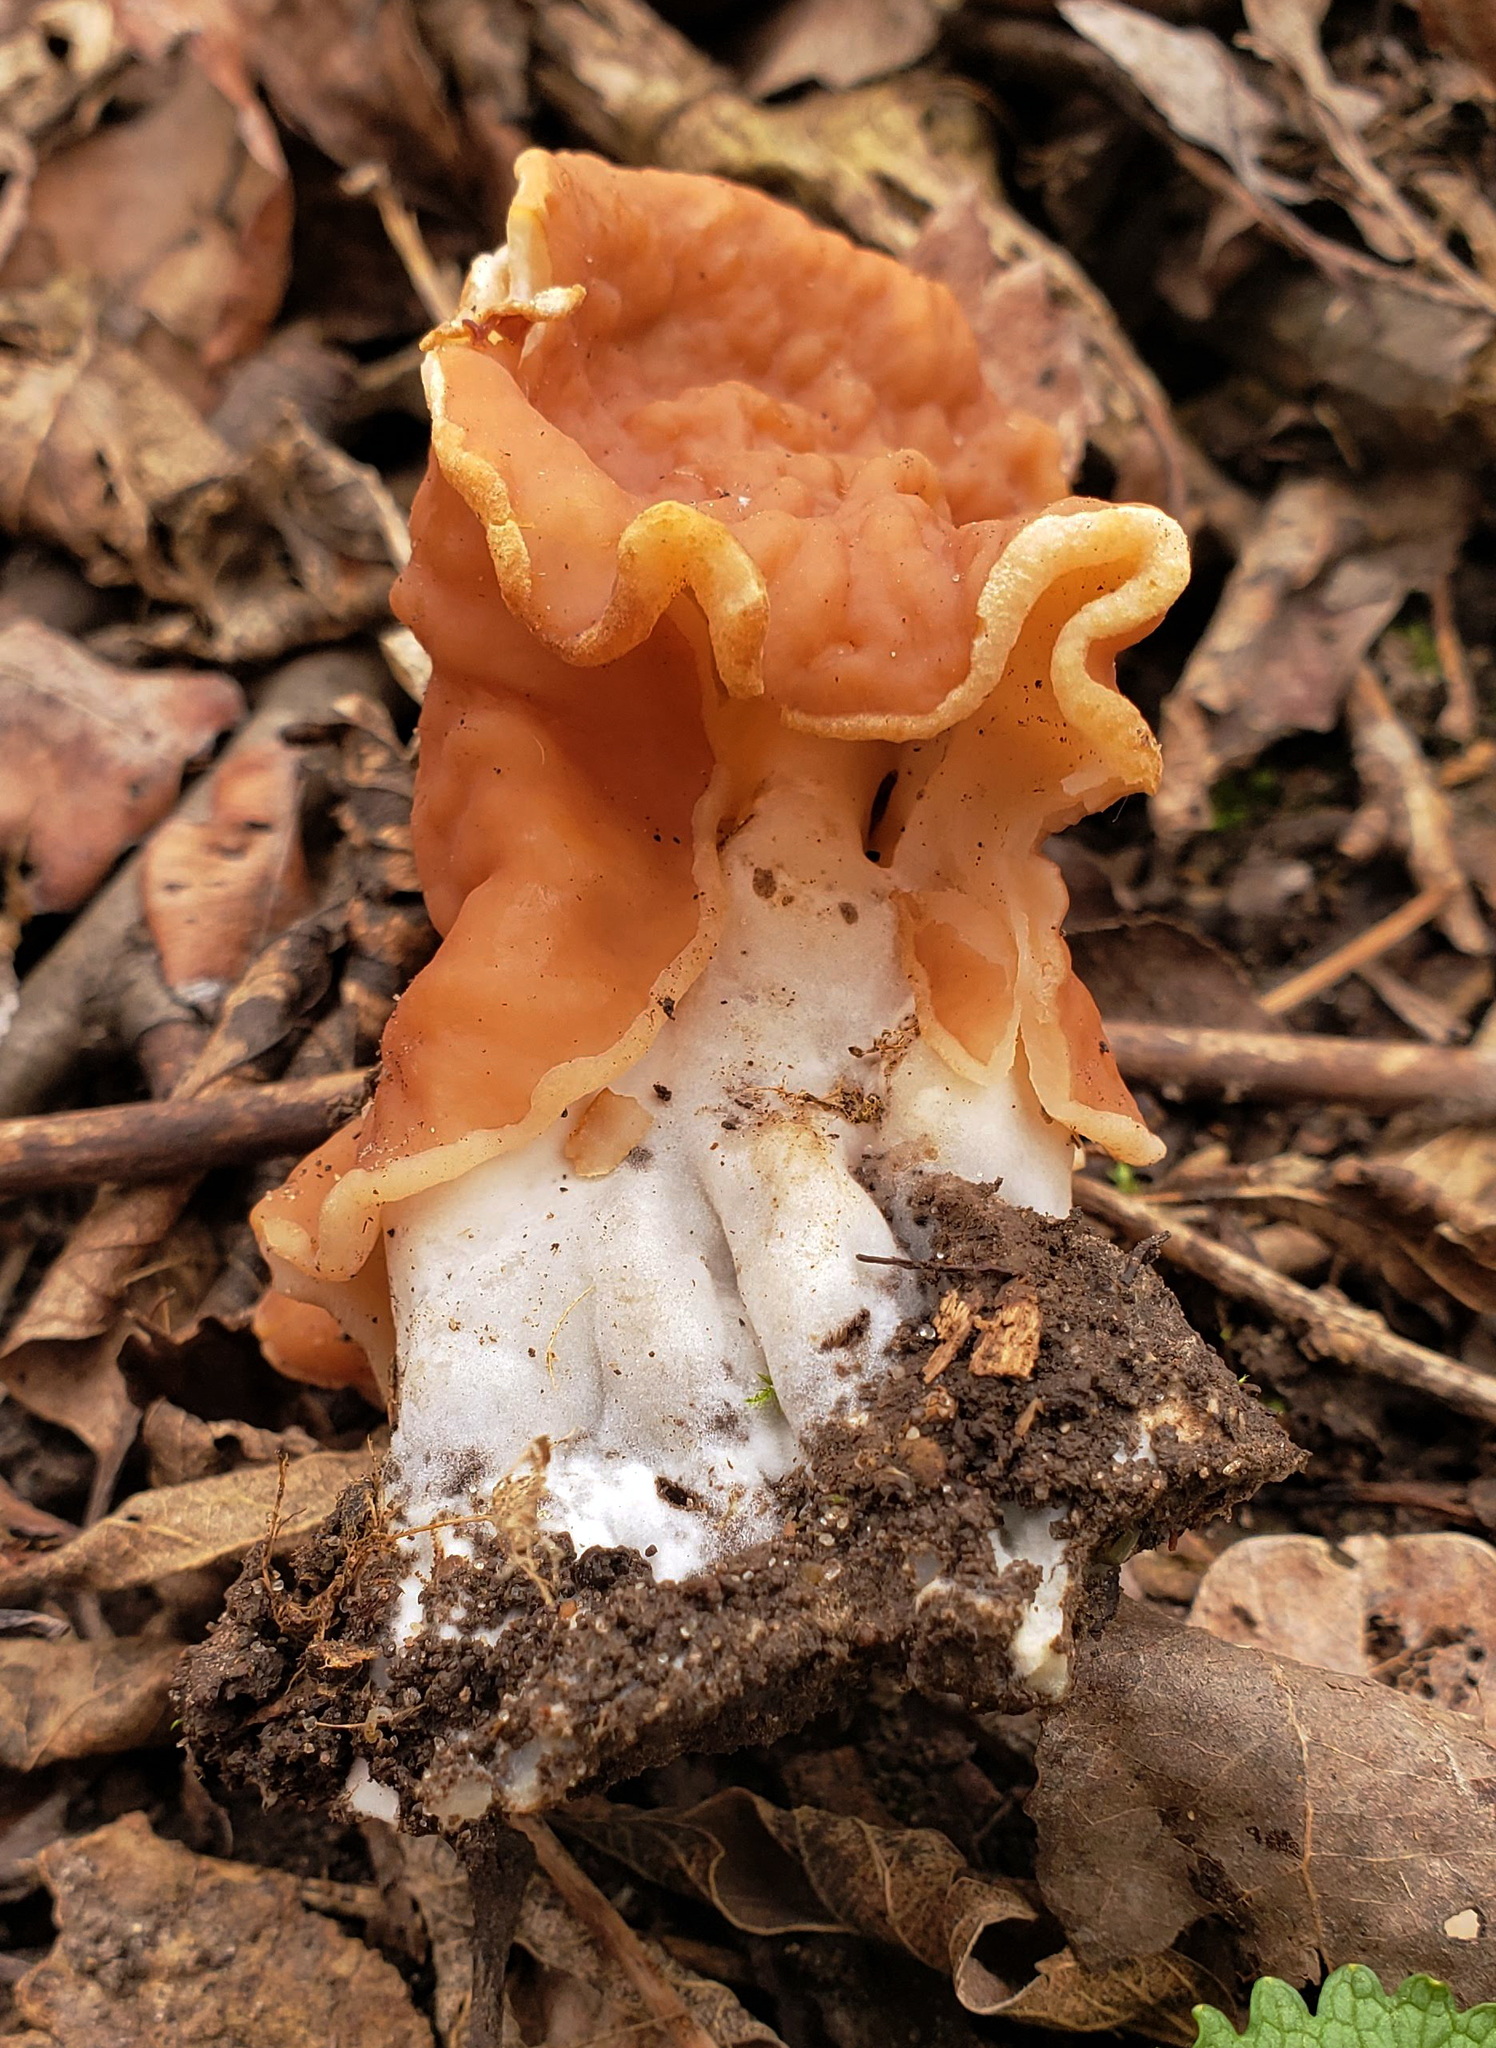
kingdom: Fungi
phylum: Ascomycota
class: Pezizomycetes
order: Pezizales
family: Discinaceae
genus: Discina
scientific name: Discina brunnea
